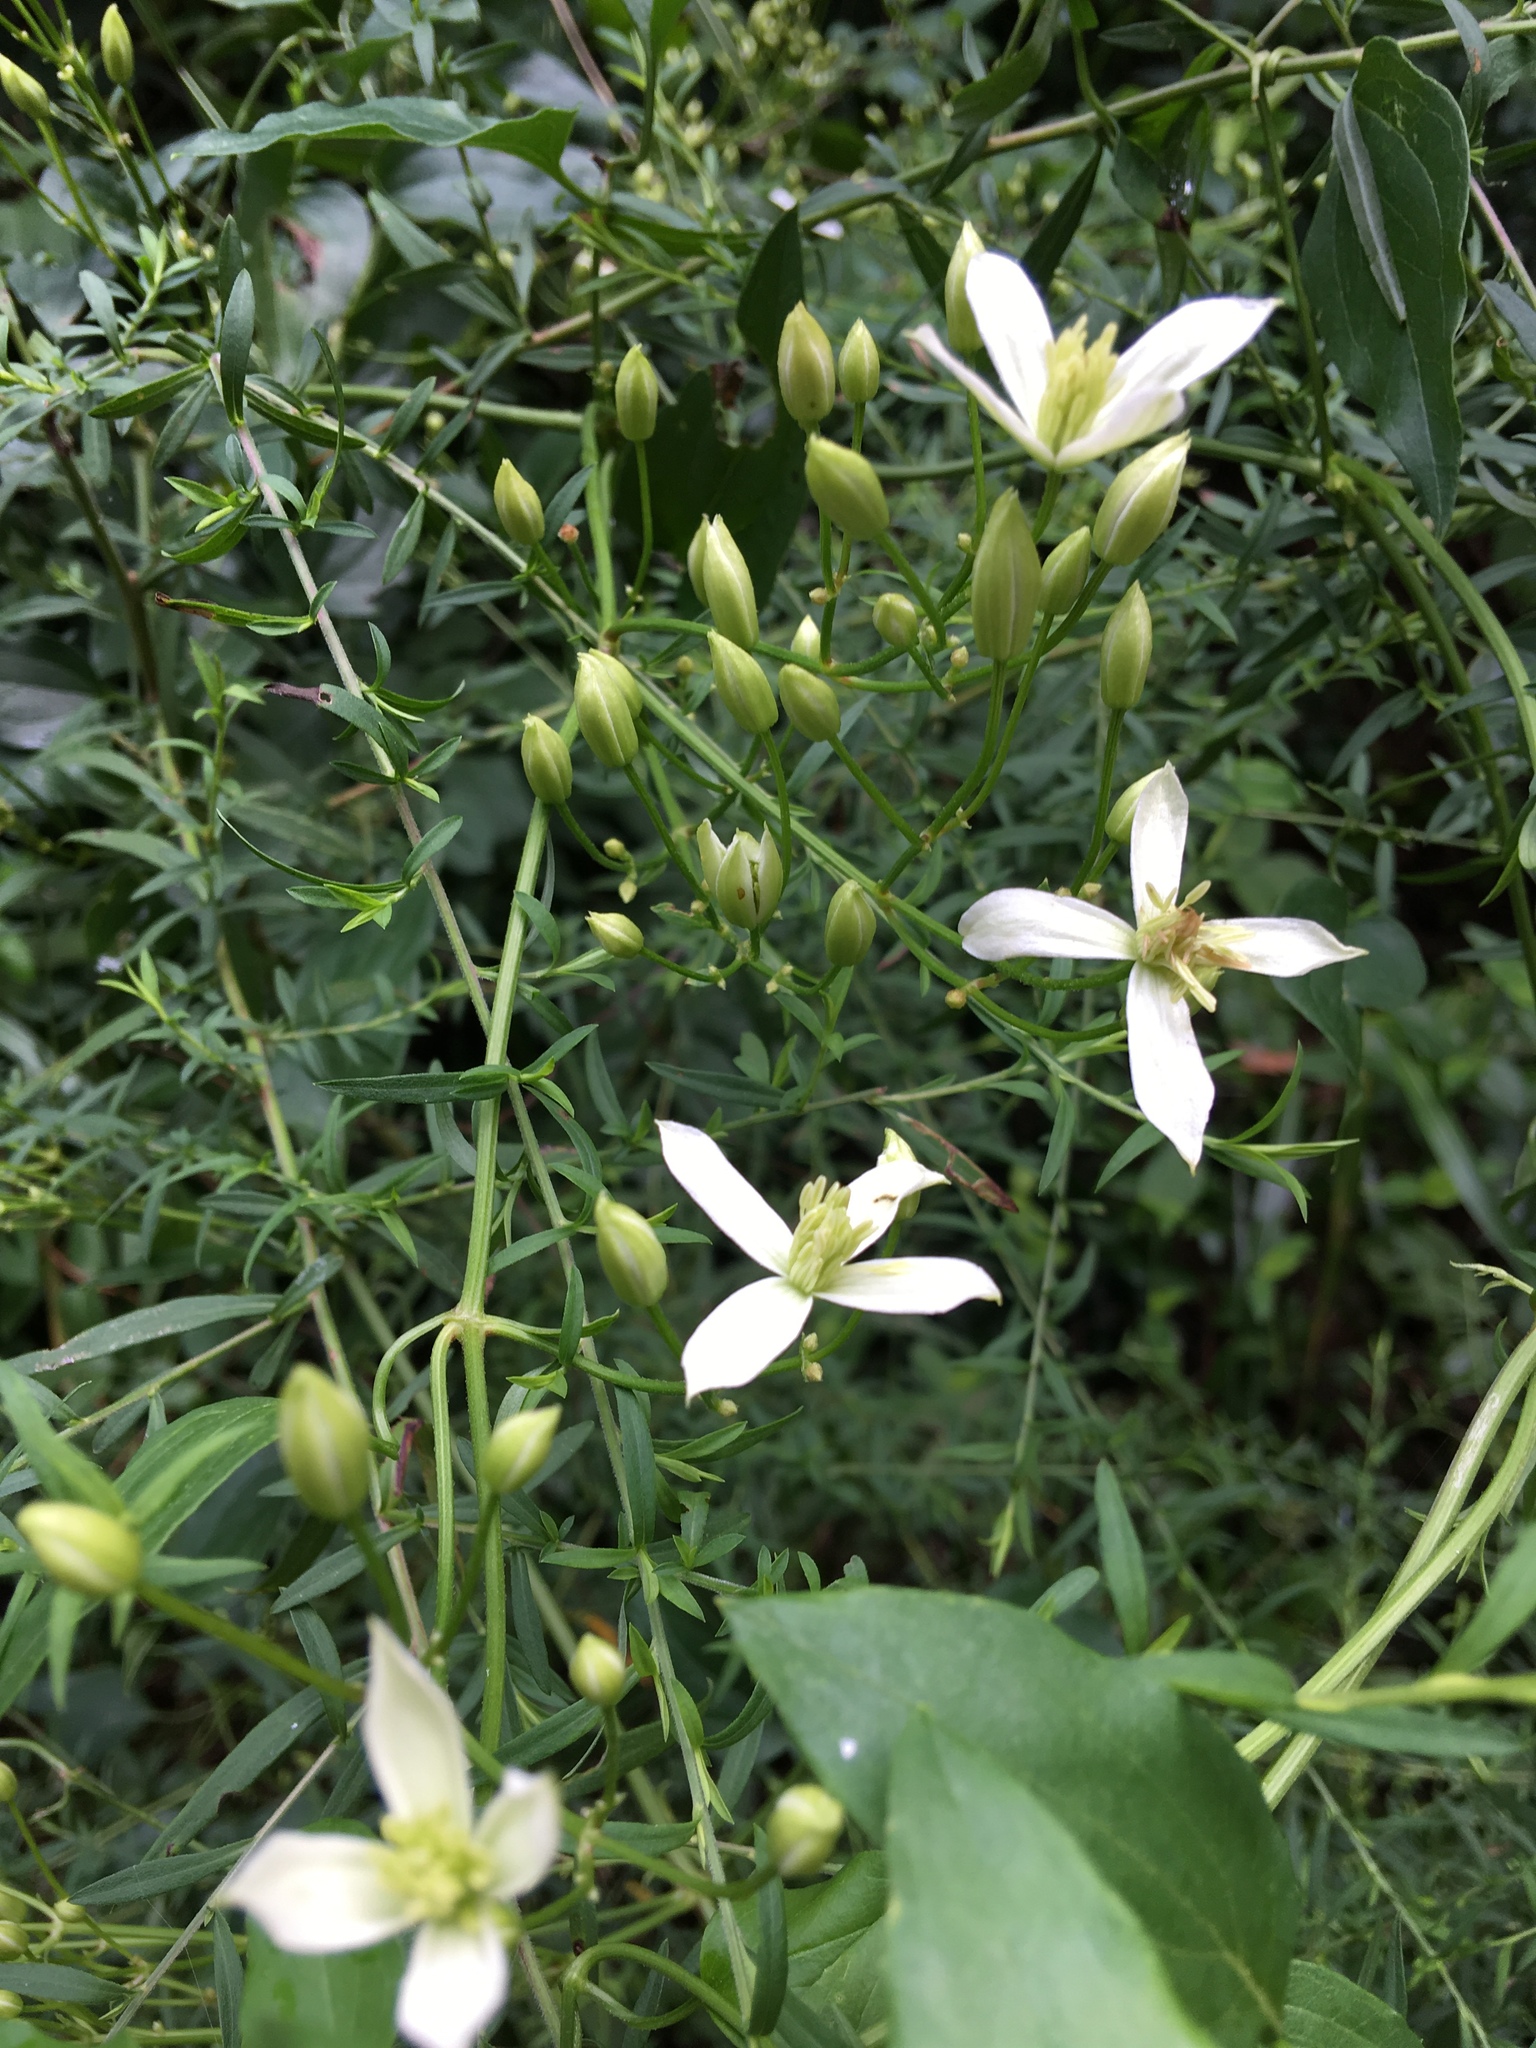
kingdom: Plantae
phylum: Tracheophyta
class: Magnoliopsida
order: Ranunculales
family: Ranunculaceae
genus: Clematis
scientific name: Clematis terniflora
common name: Sweet autumn clematis
